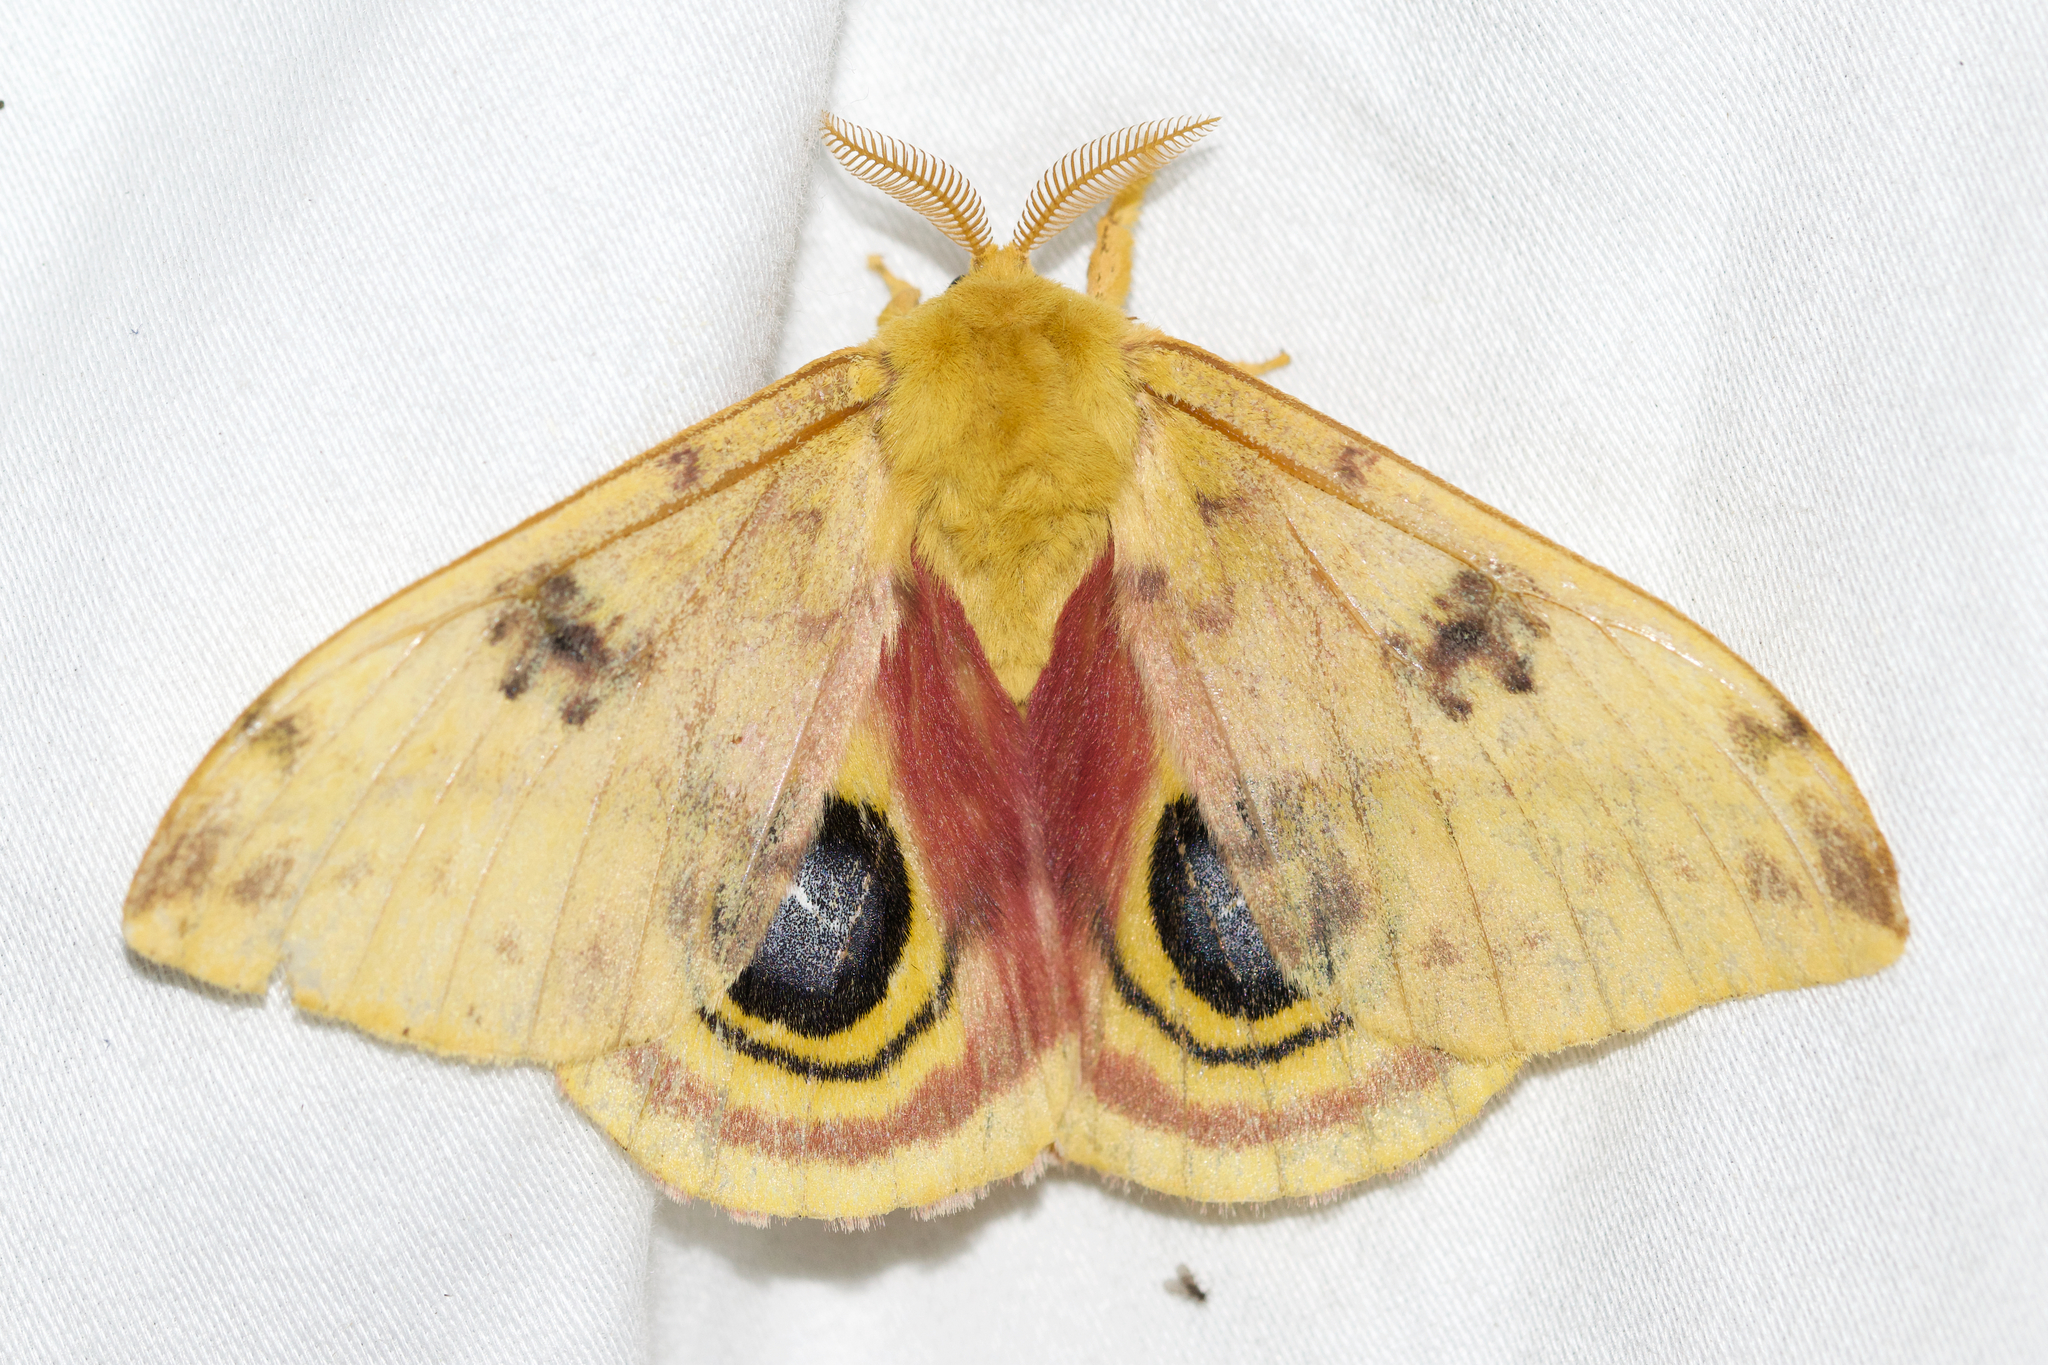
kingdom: Animalia
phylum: Arthropoda
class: Insecta
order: Lepidoptera
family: Saturniidae
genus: Automeris
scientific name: Automeris io
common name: Io moth
